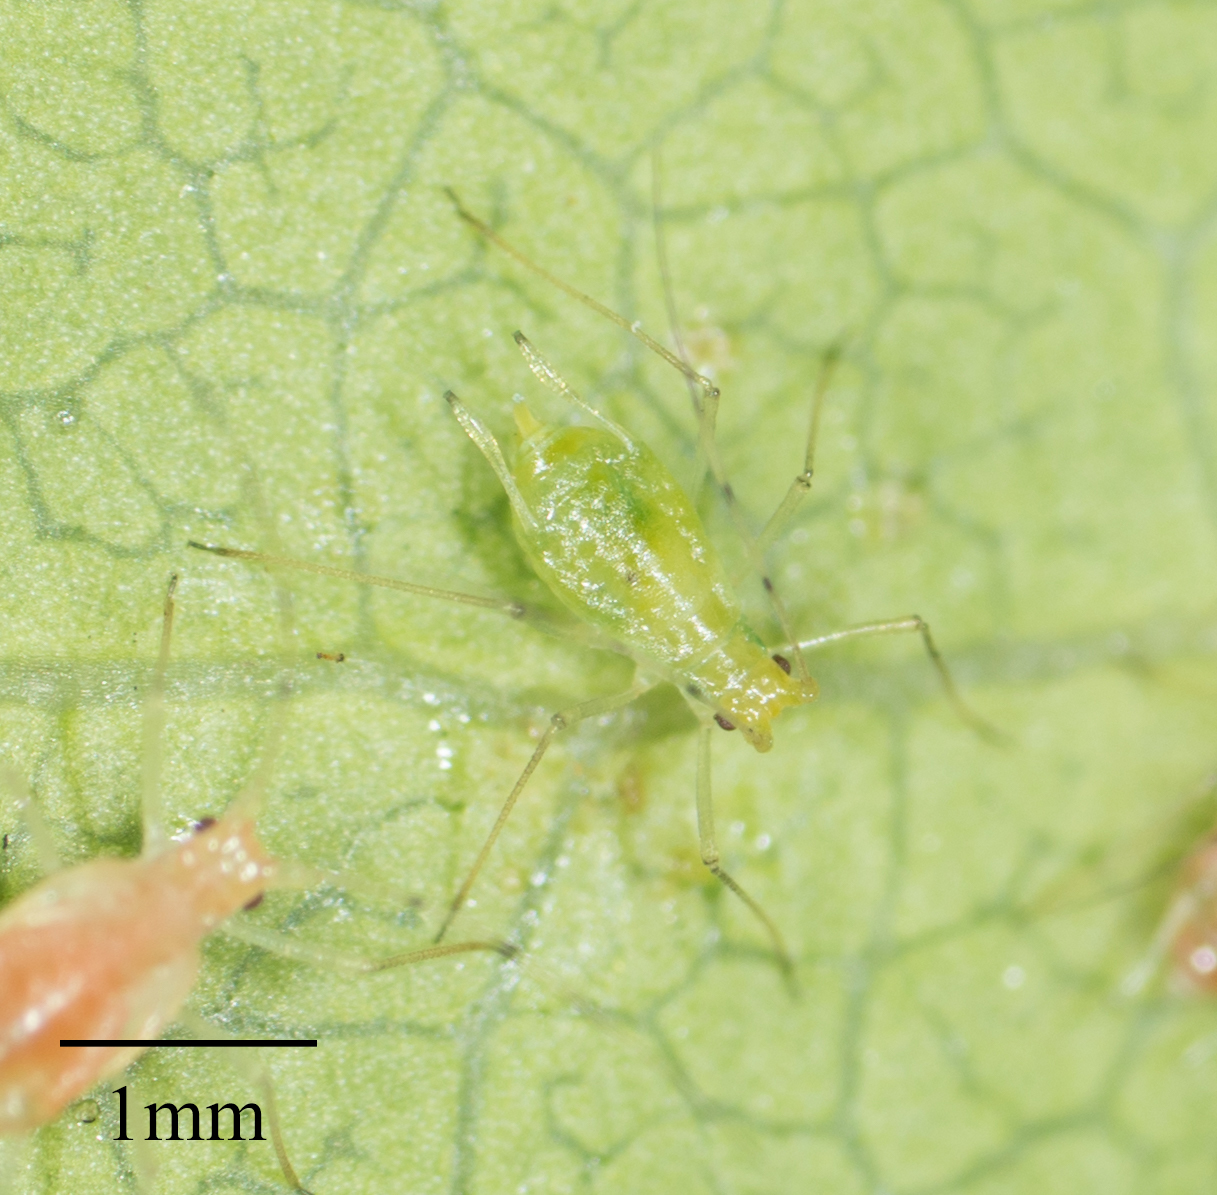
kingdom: Animalia
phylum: Arthropoda
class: Insecta
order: Hemiptera
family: Aphididae
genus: Wahlgreniella
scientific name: Wahlgreniella nervata
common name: Pale green aphid
